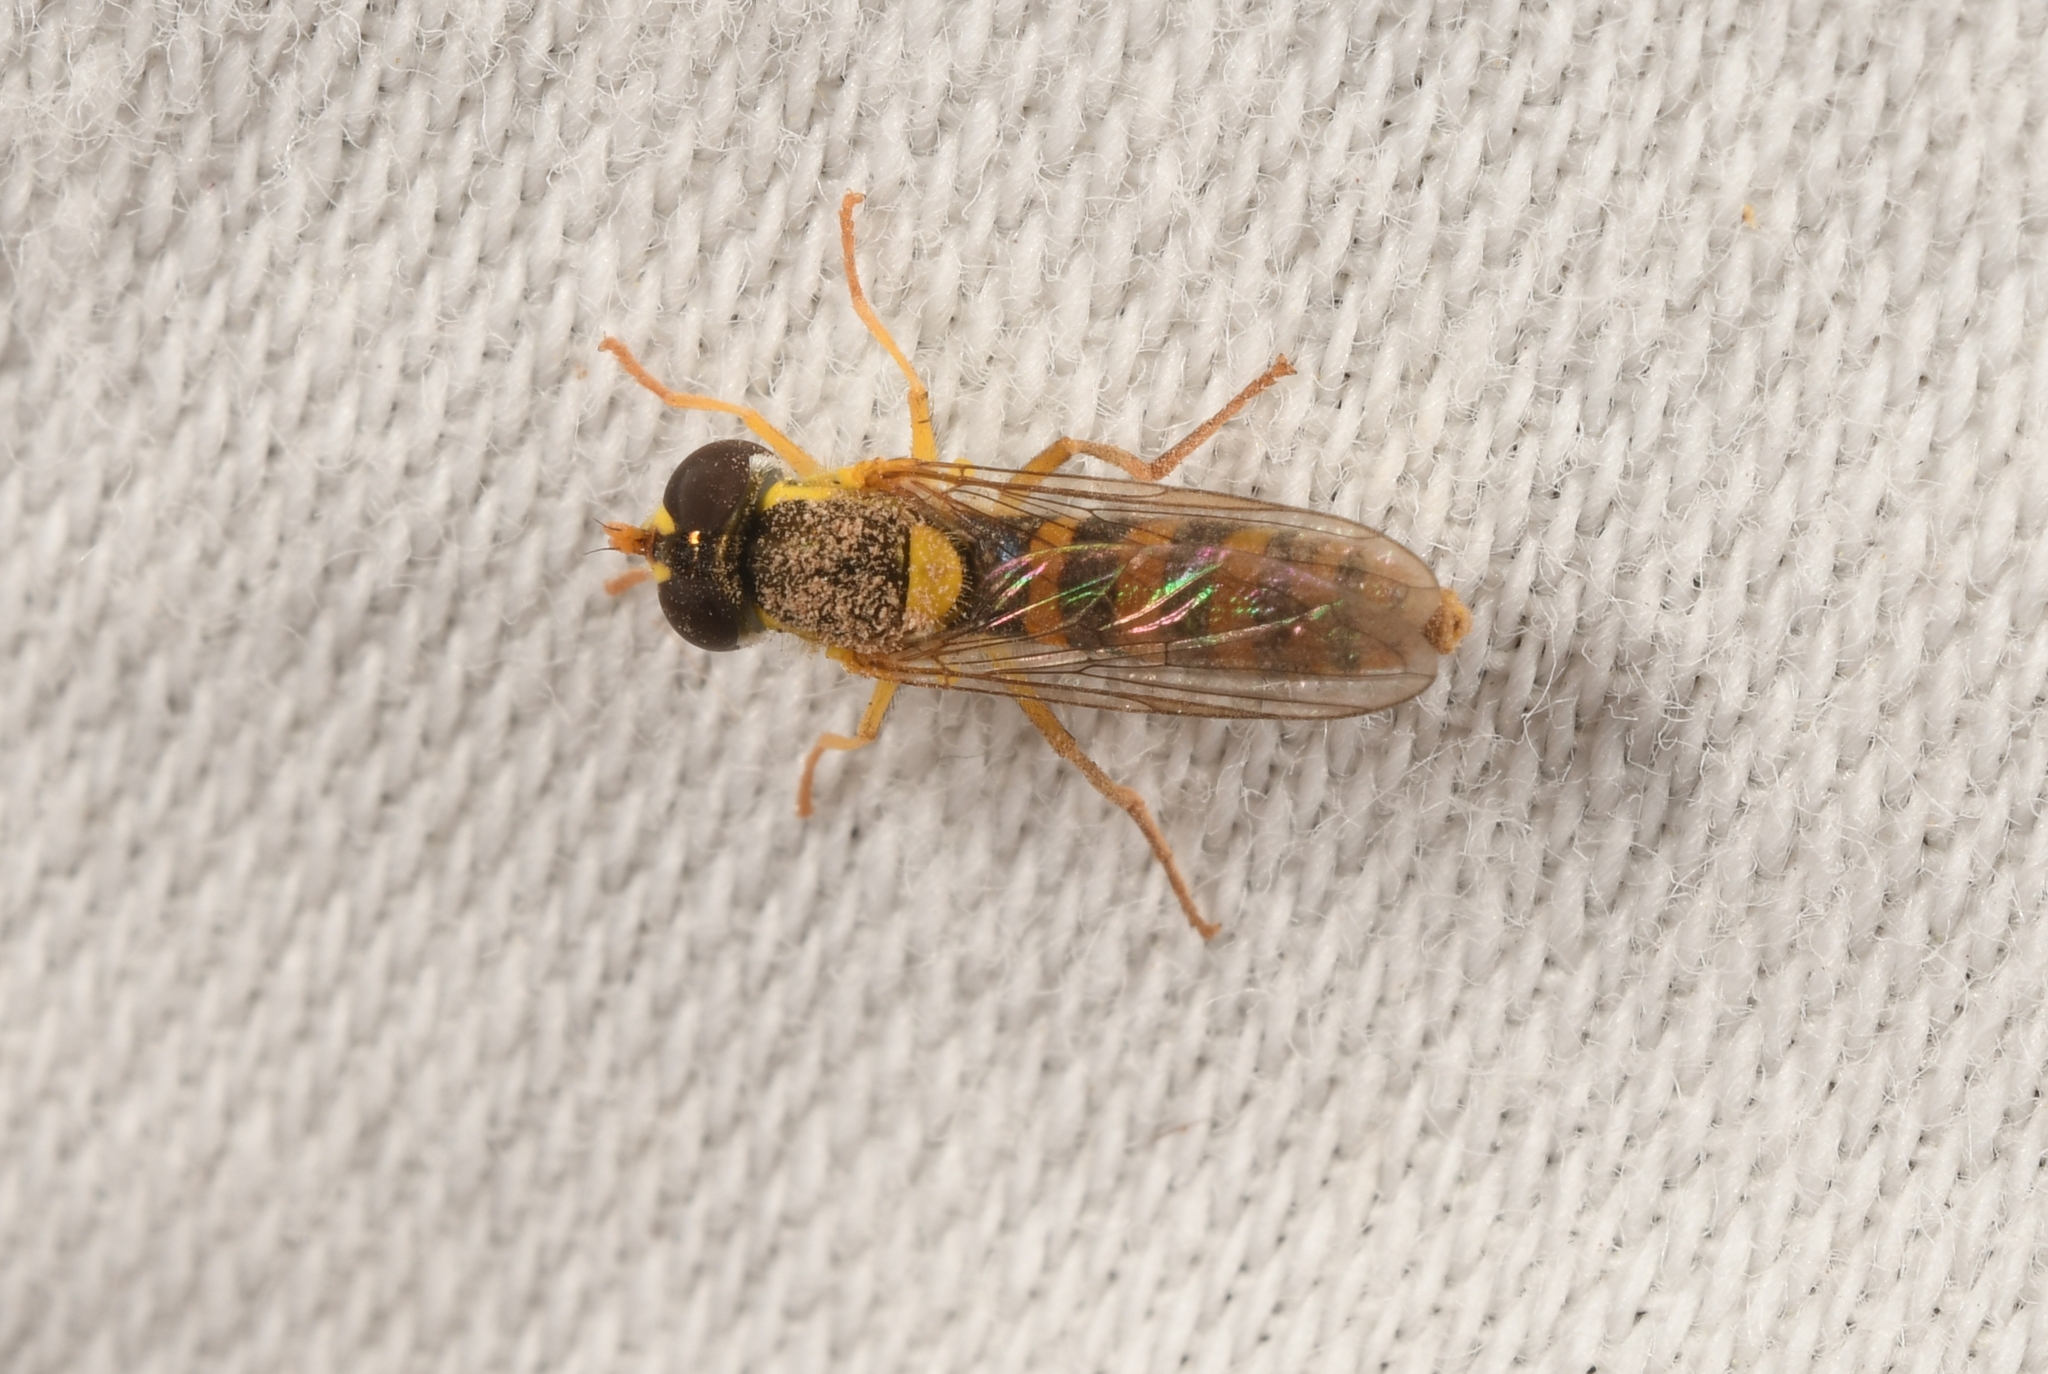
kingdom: Animalia
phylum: Arthropoda
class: Insecta
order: Diptera
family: Syrphidae
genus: Sphaerophoria
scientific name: Sphaerophoria
